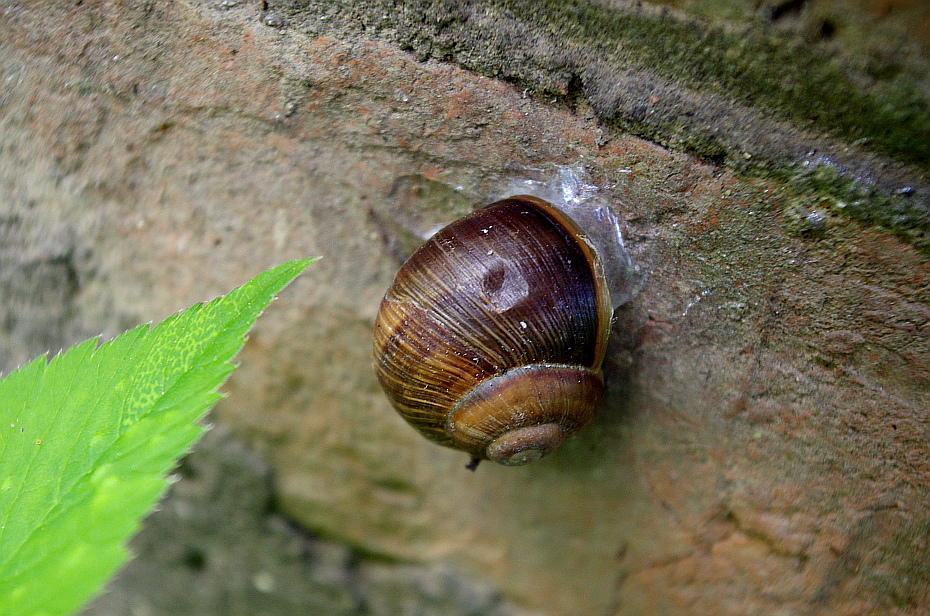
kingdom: Animalia
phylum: Mollusca
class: Gastropoda
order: Stylommatophora
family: Helicidae
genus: Helix
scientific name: Helix pomatia
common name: Roman snail
